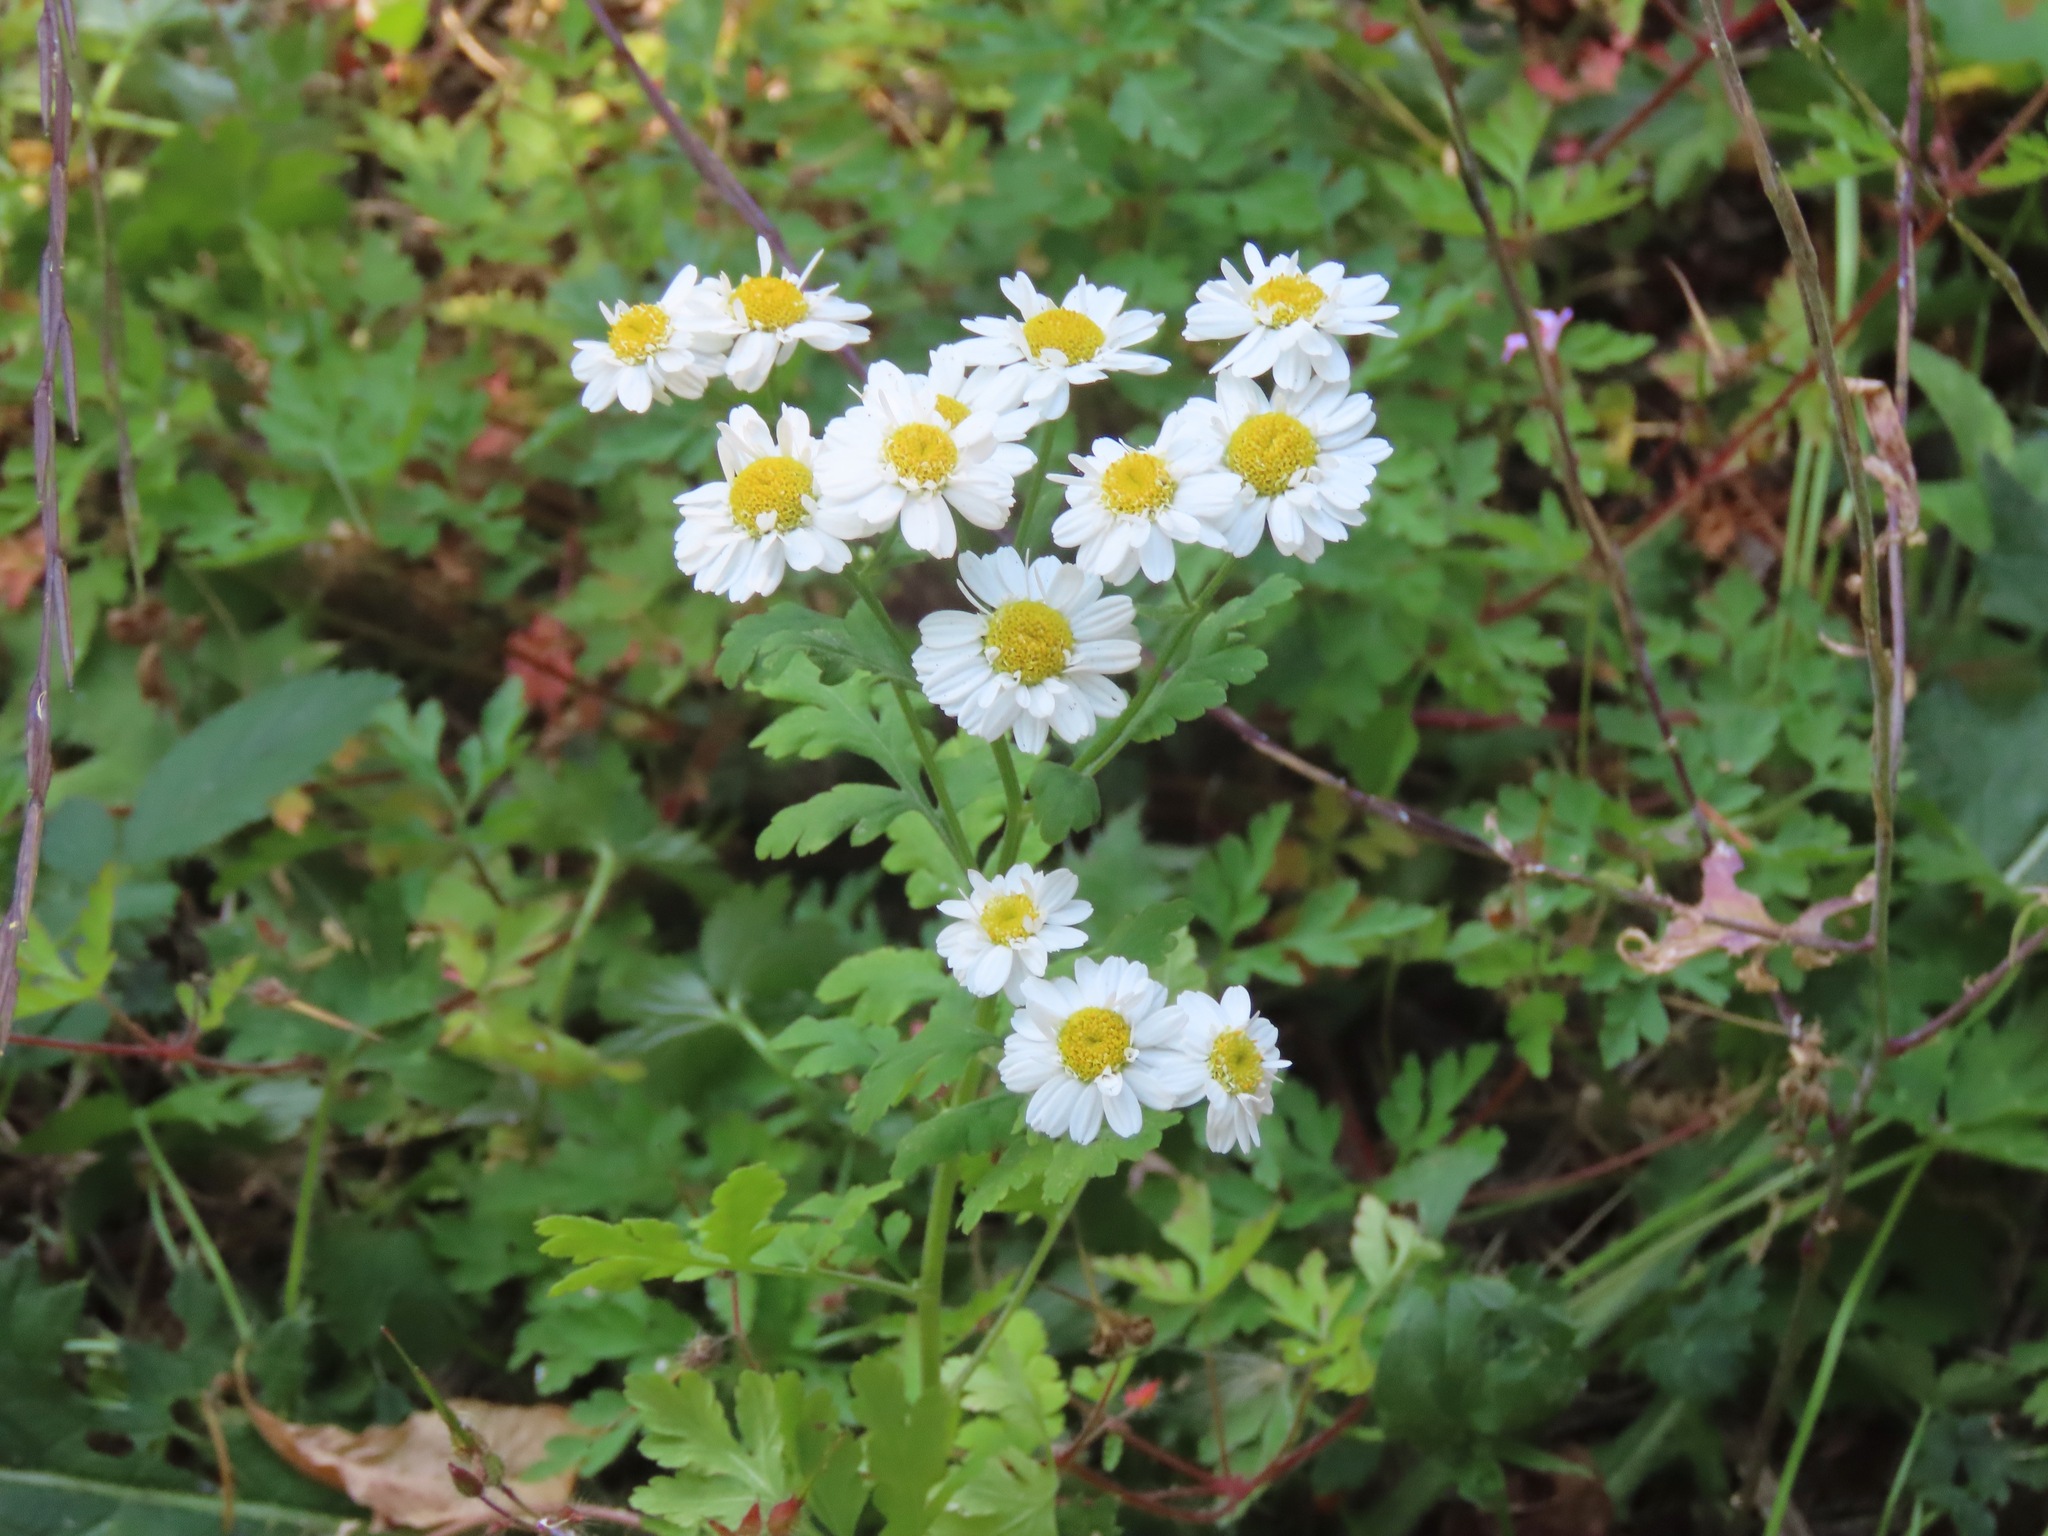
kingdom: Plantae
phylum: Tracheophyta
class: Magnoliopsida
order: Asterales
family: Asteraceae
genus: Tanacetum
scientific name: Tanacetum parthenium
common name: Feverfew
